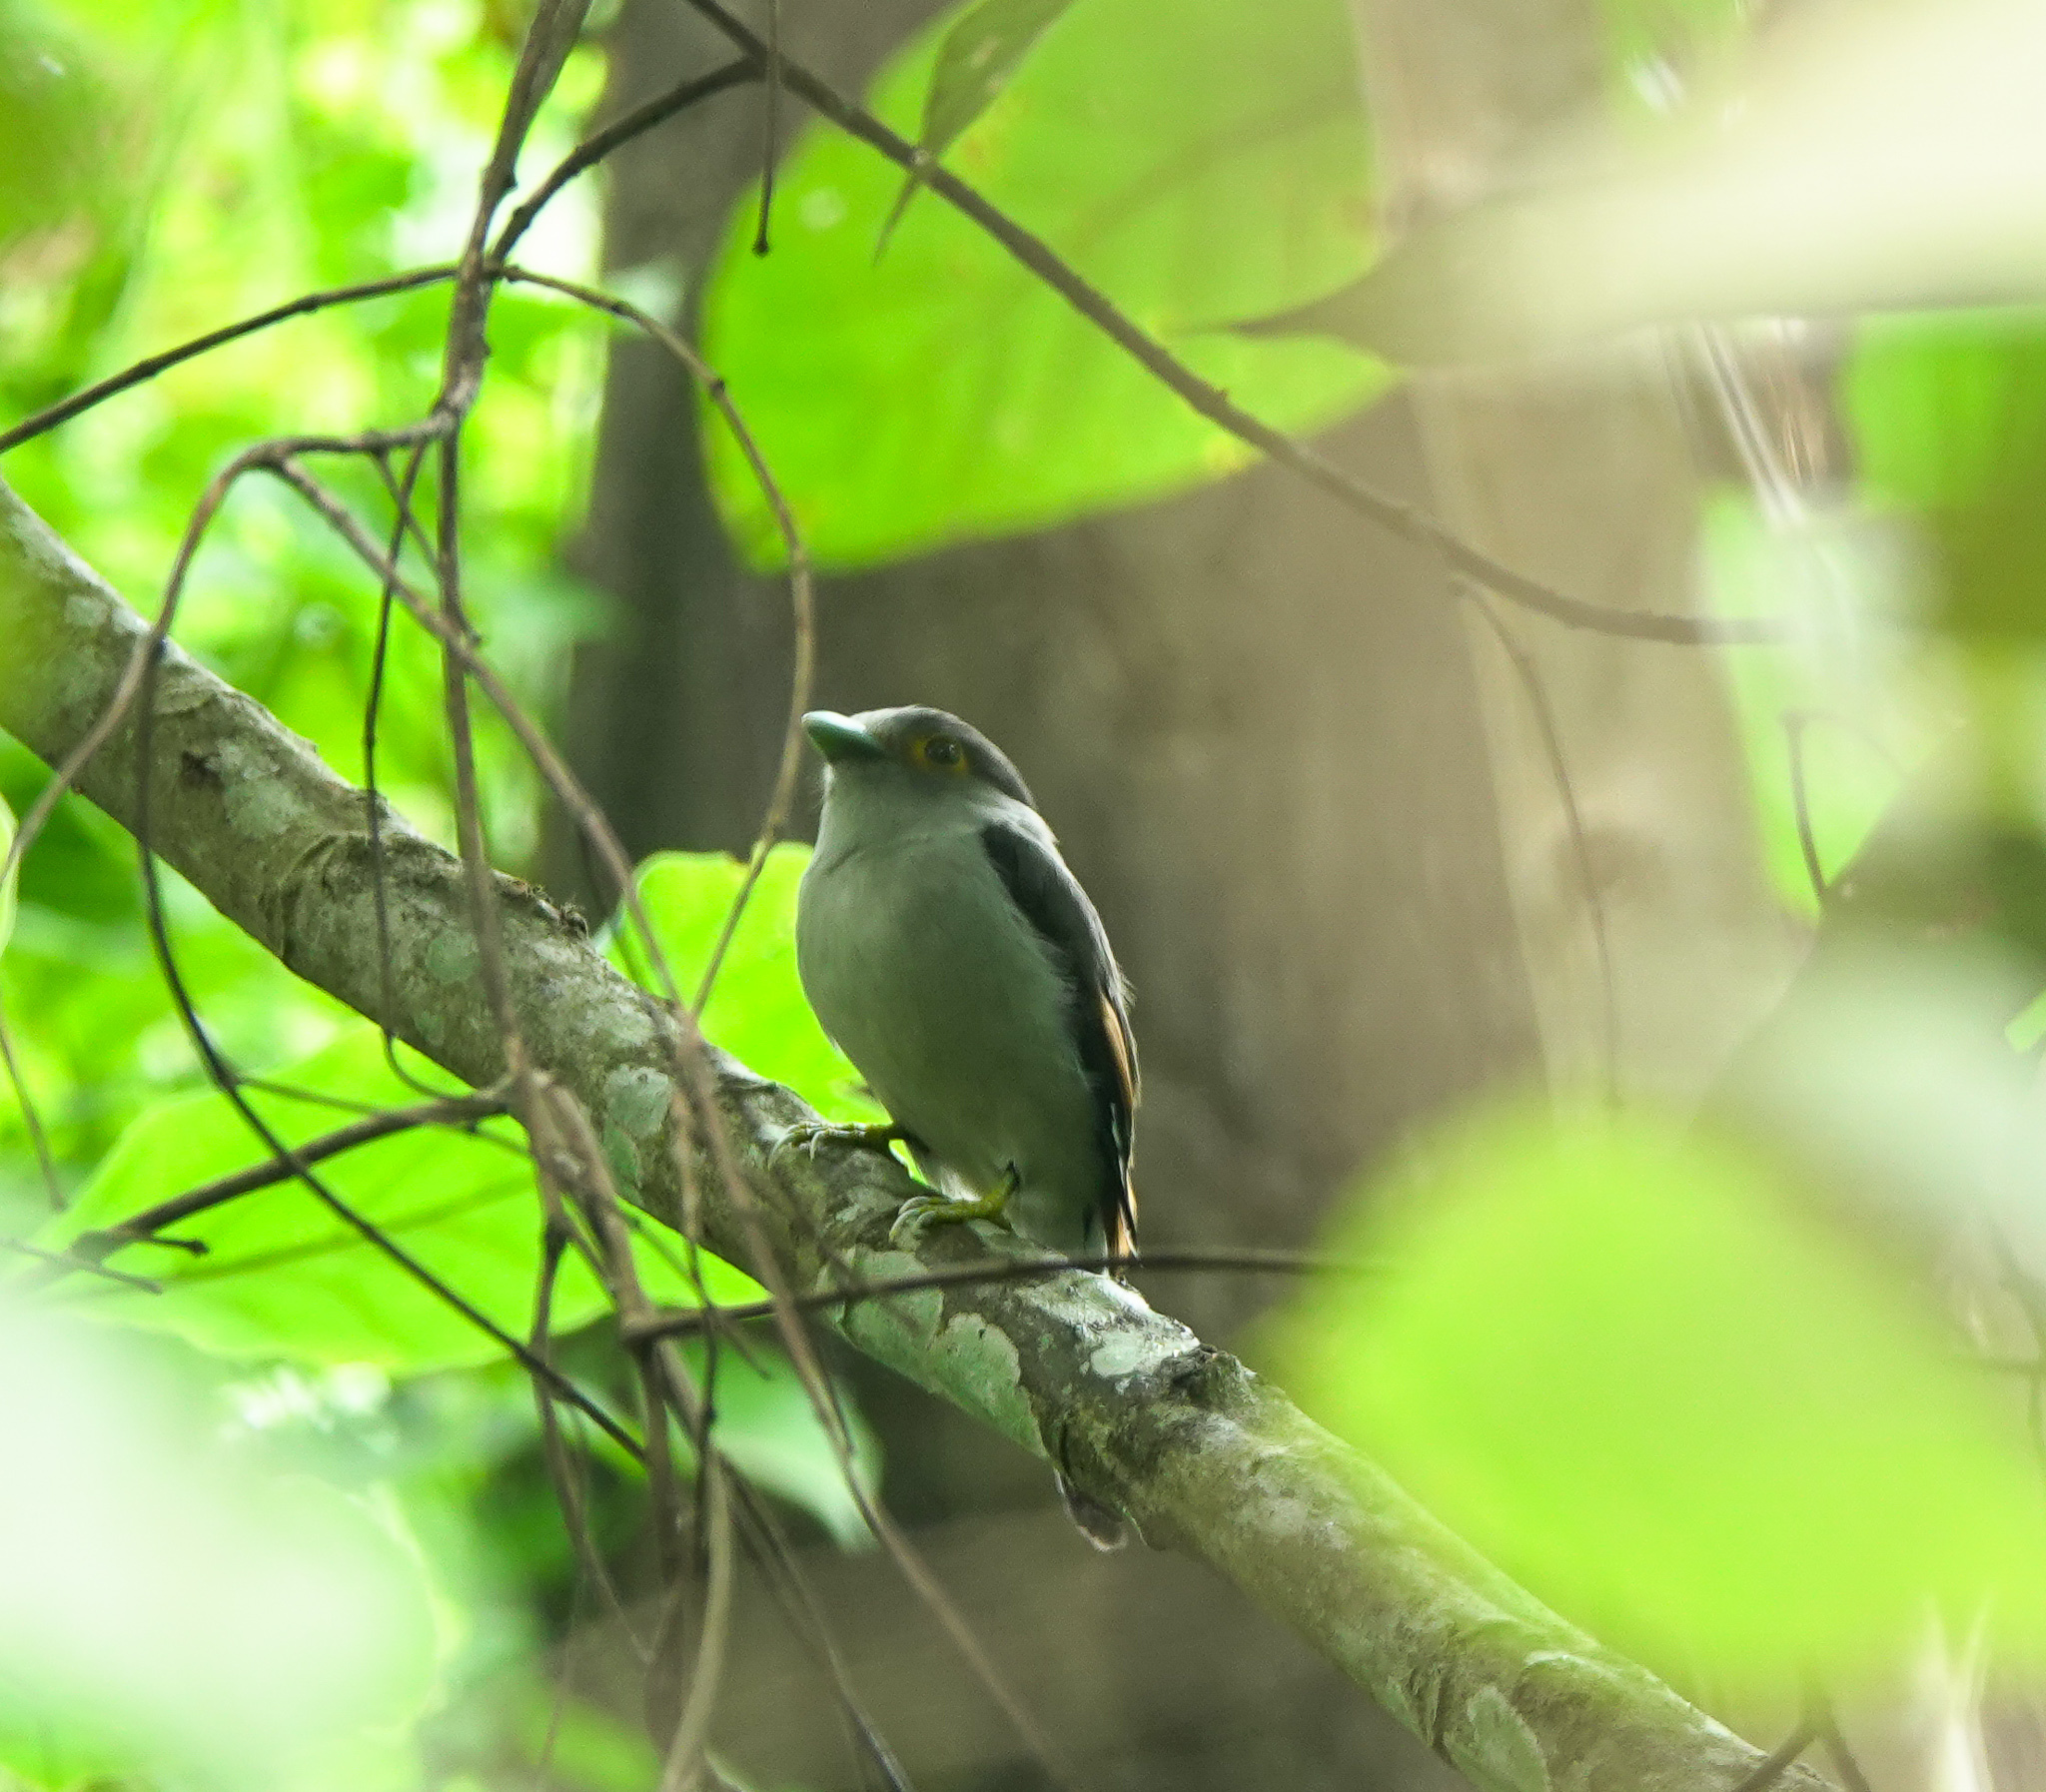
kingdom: Animalia
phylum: Chordata
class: Aves
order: Passeriformes
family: Eurylaimidae
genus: Serilophus
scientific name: Serilophus lunatus
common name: Silver-breasted broadbill
